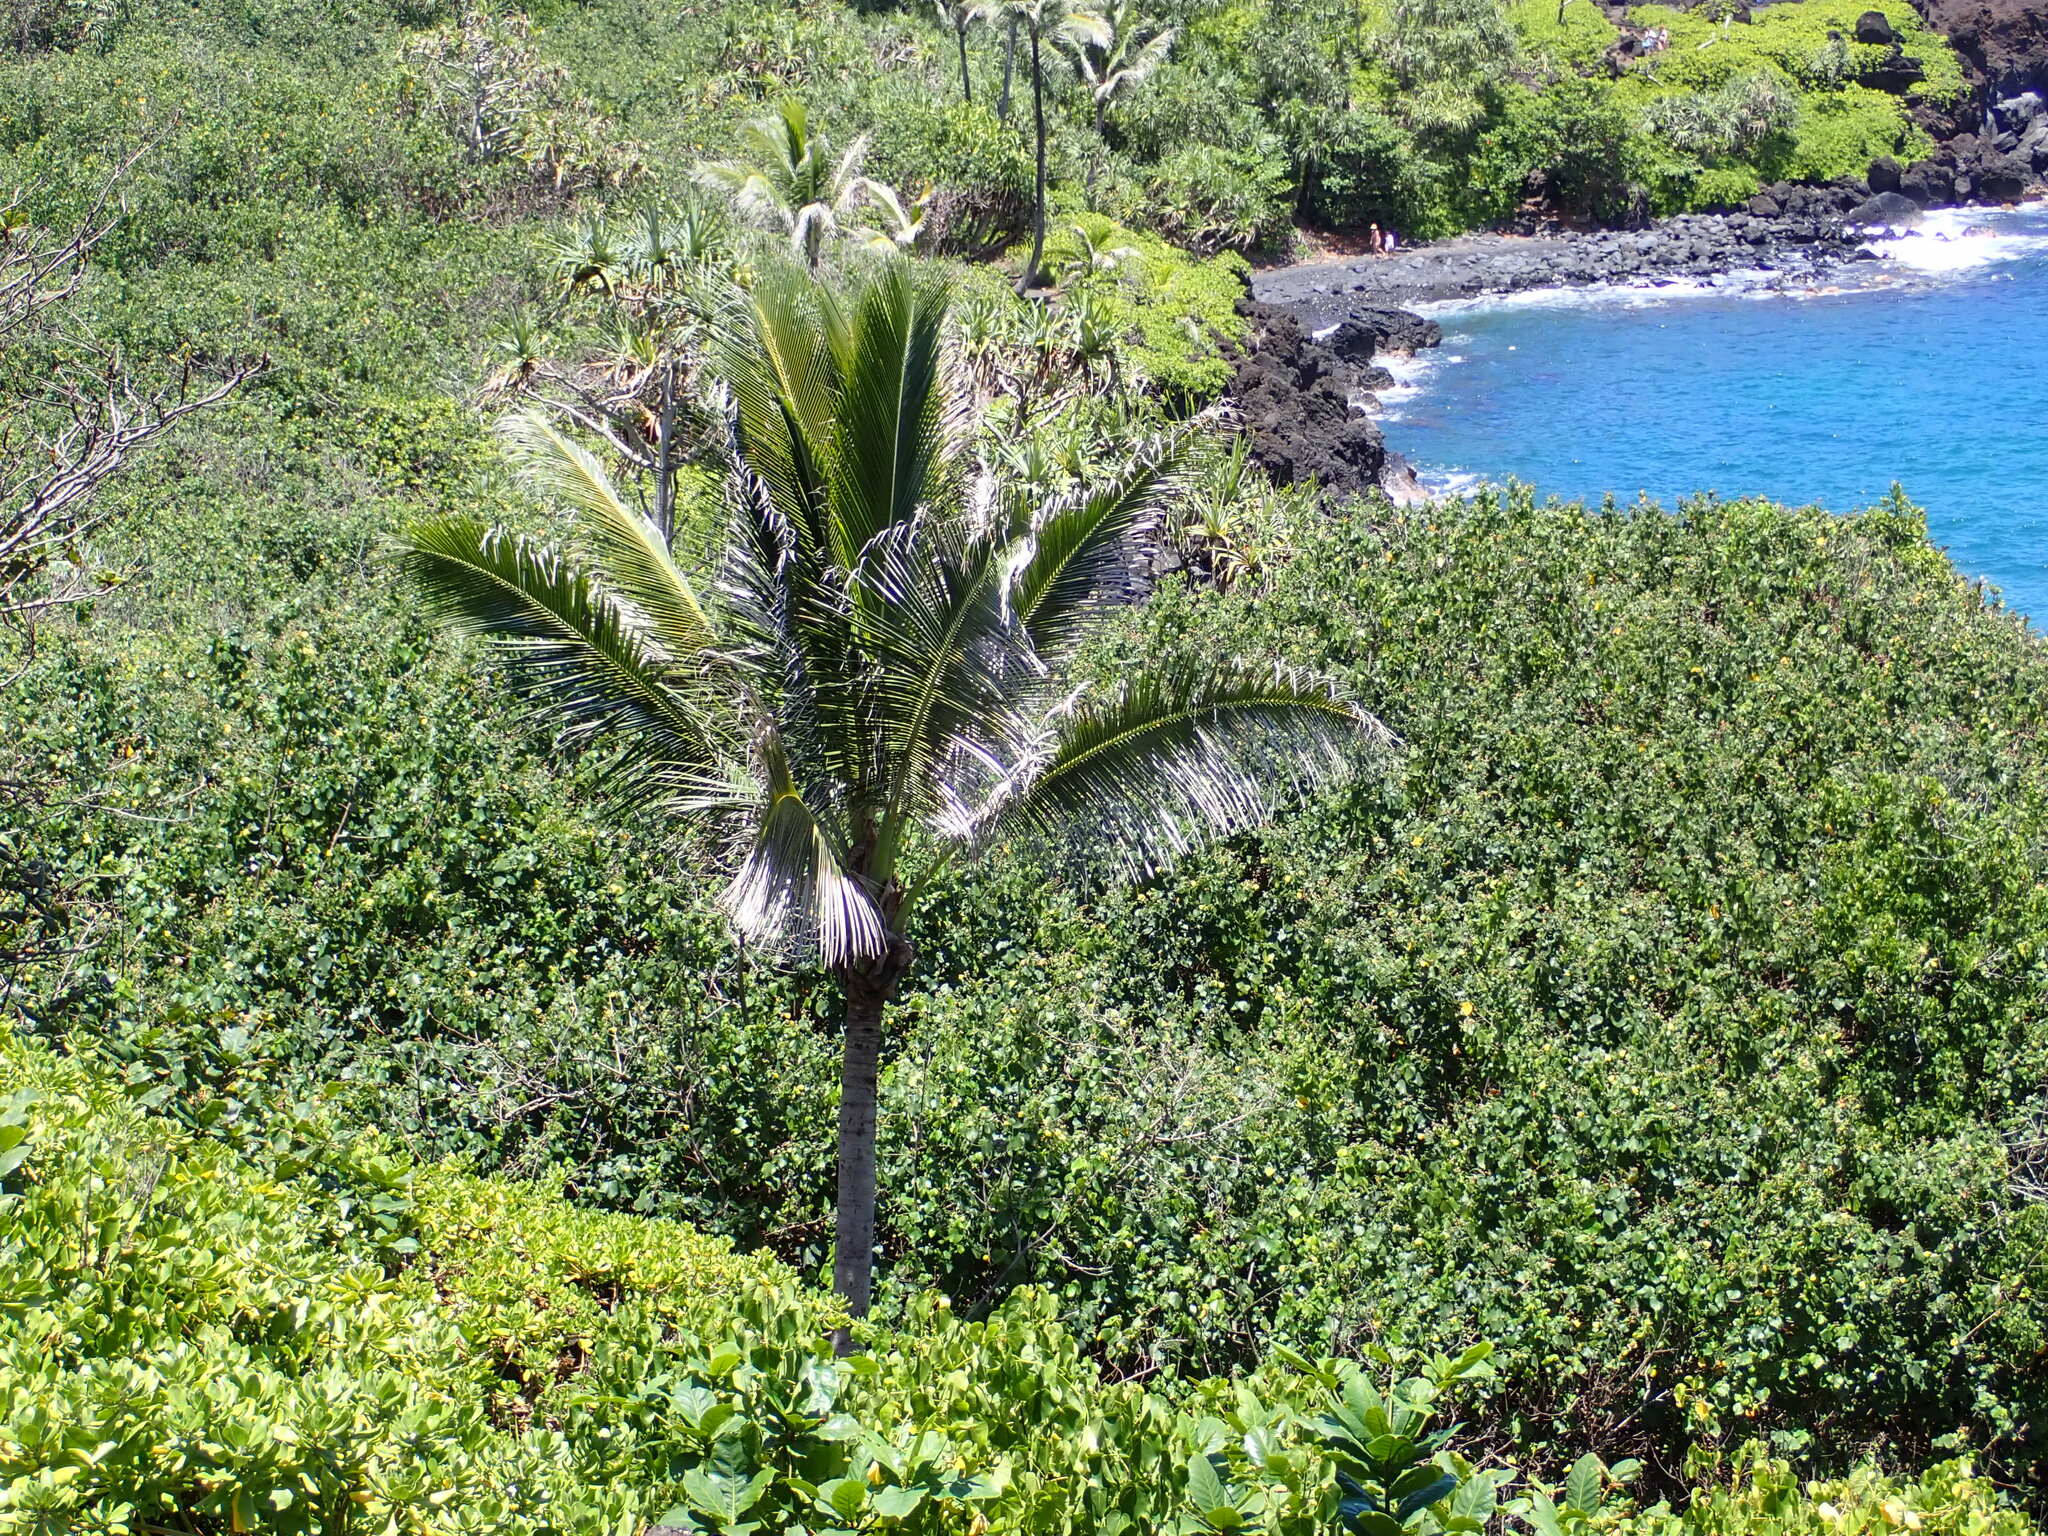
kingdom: Plantae
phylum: Tracheophyta
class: Liliopsida
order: Arecales
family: Arecaceae
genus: Cocos
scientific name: Cocos nucifera
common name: Coconut palm
